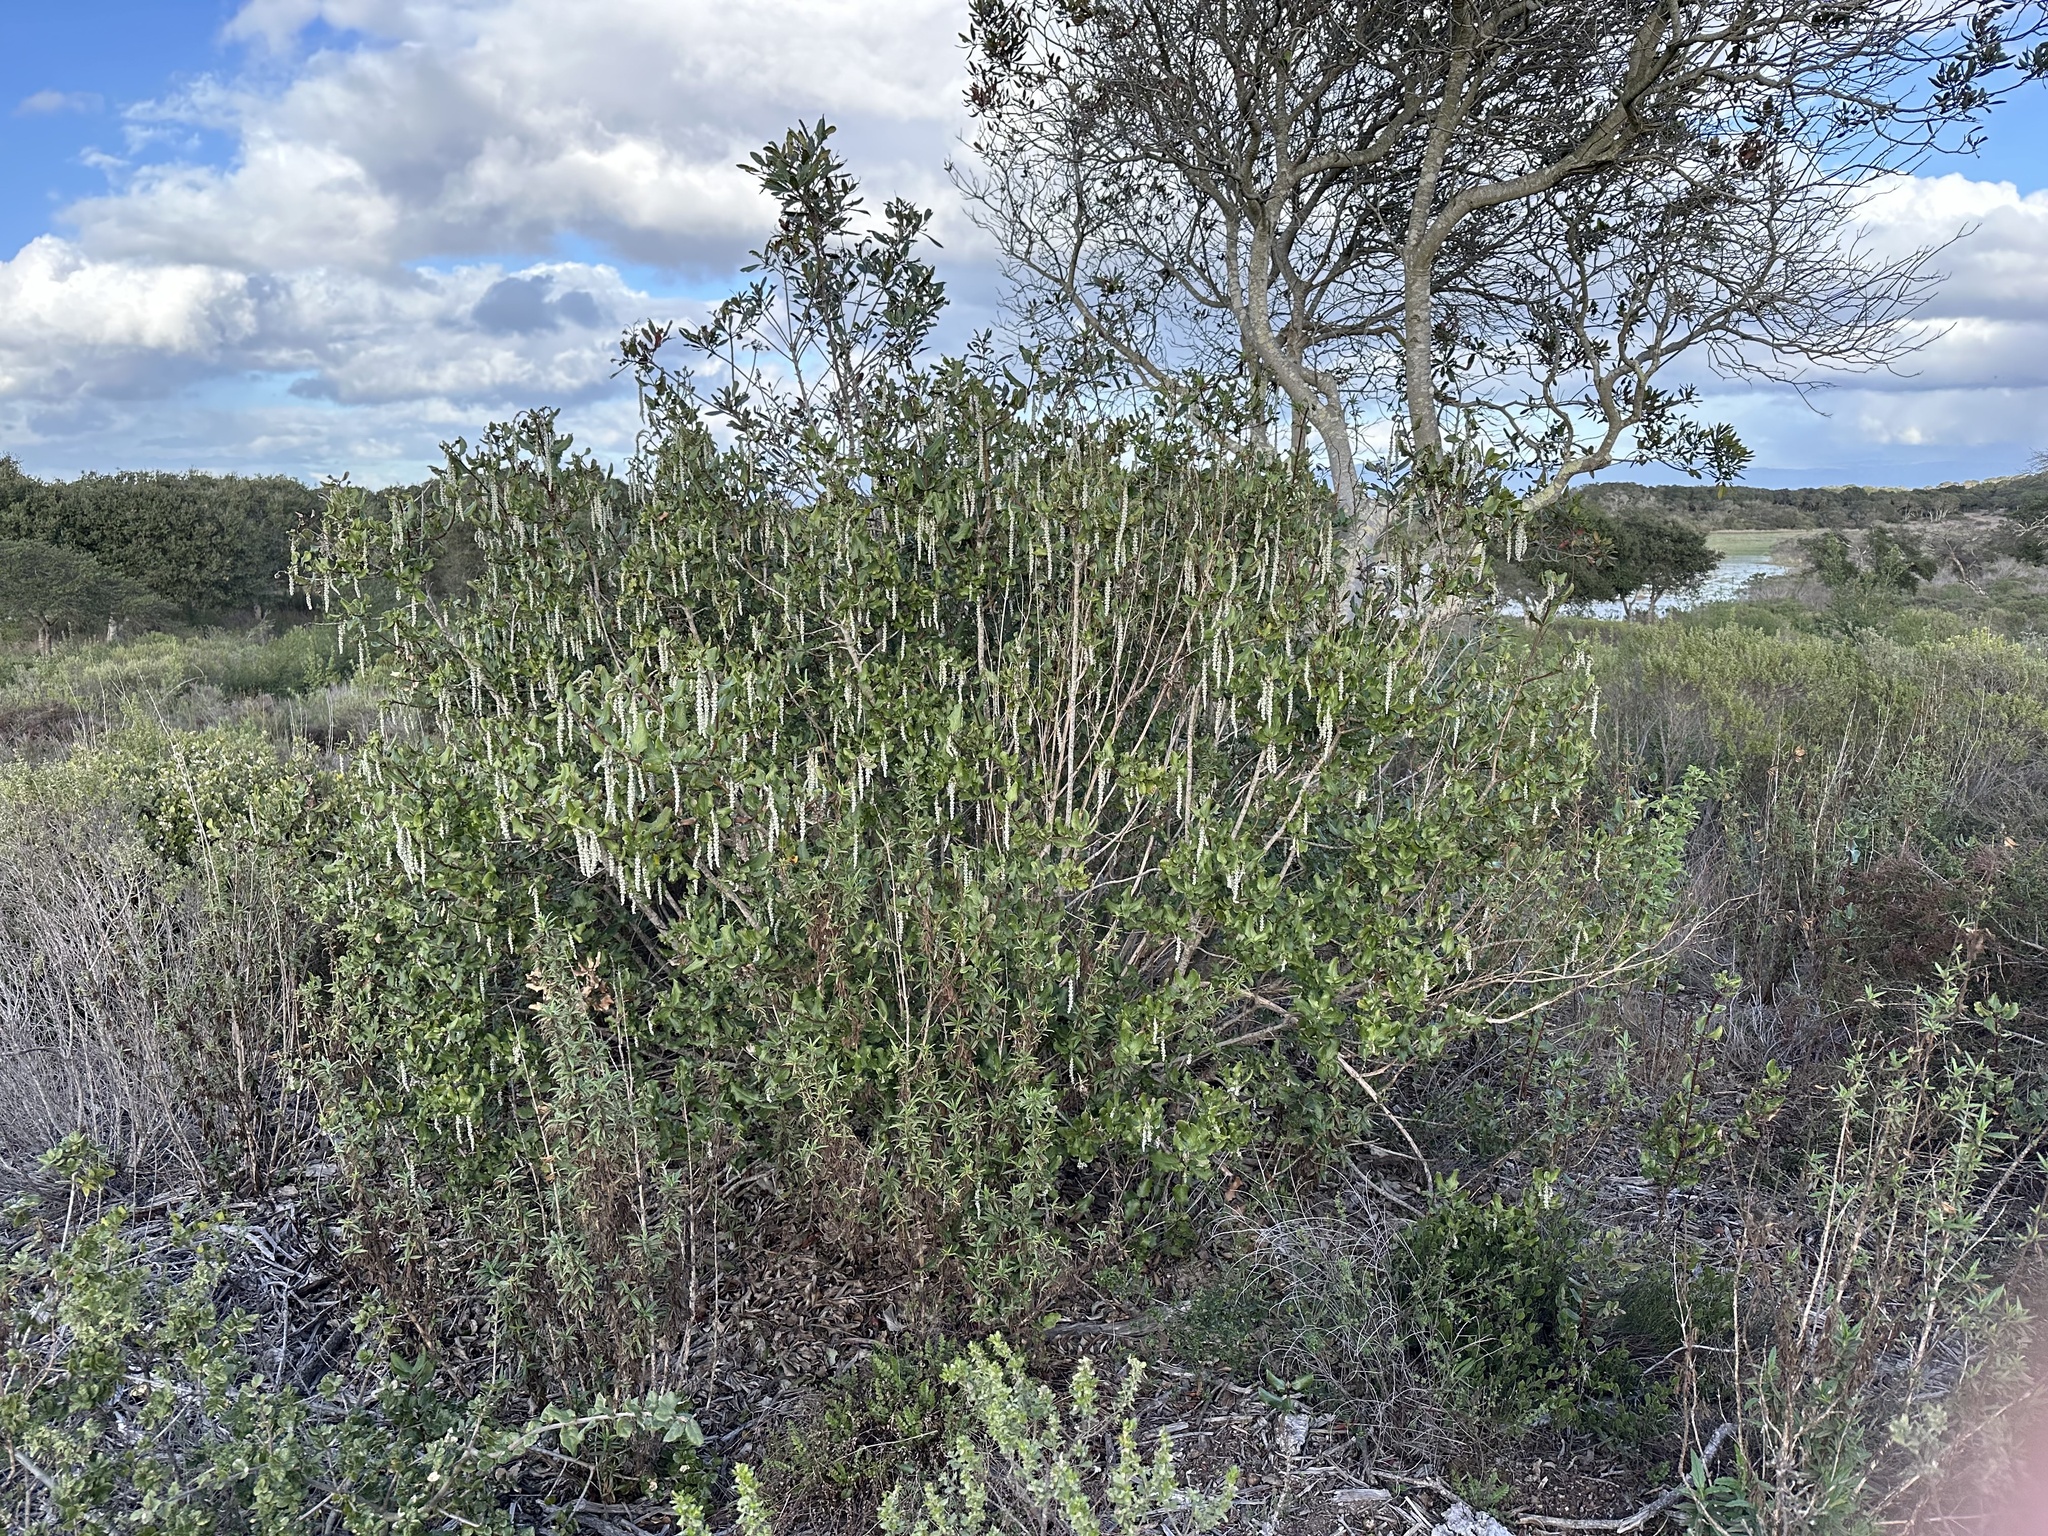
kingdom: Plantae
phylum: Tracheophyta
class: Magnoliopsida
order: Garryales
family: Garryaceae
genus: Garrya
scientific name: Garrya elliptica
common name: Silk-tassel
